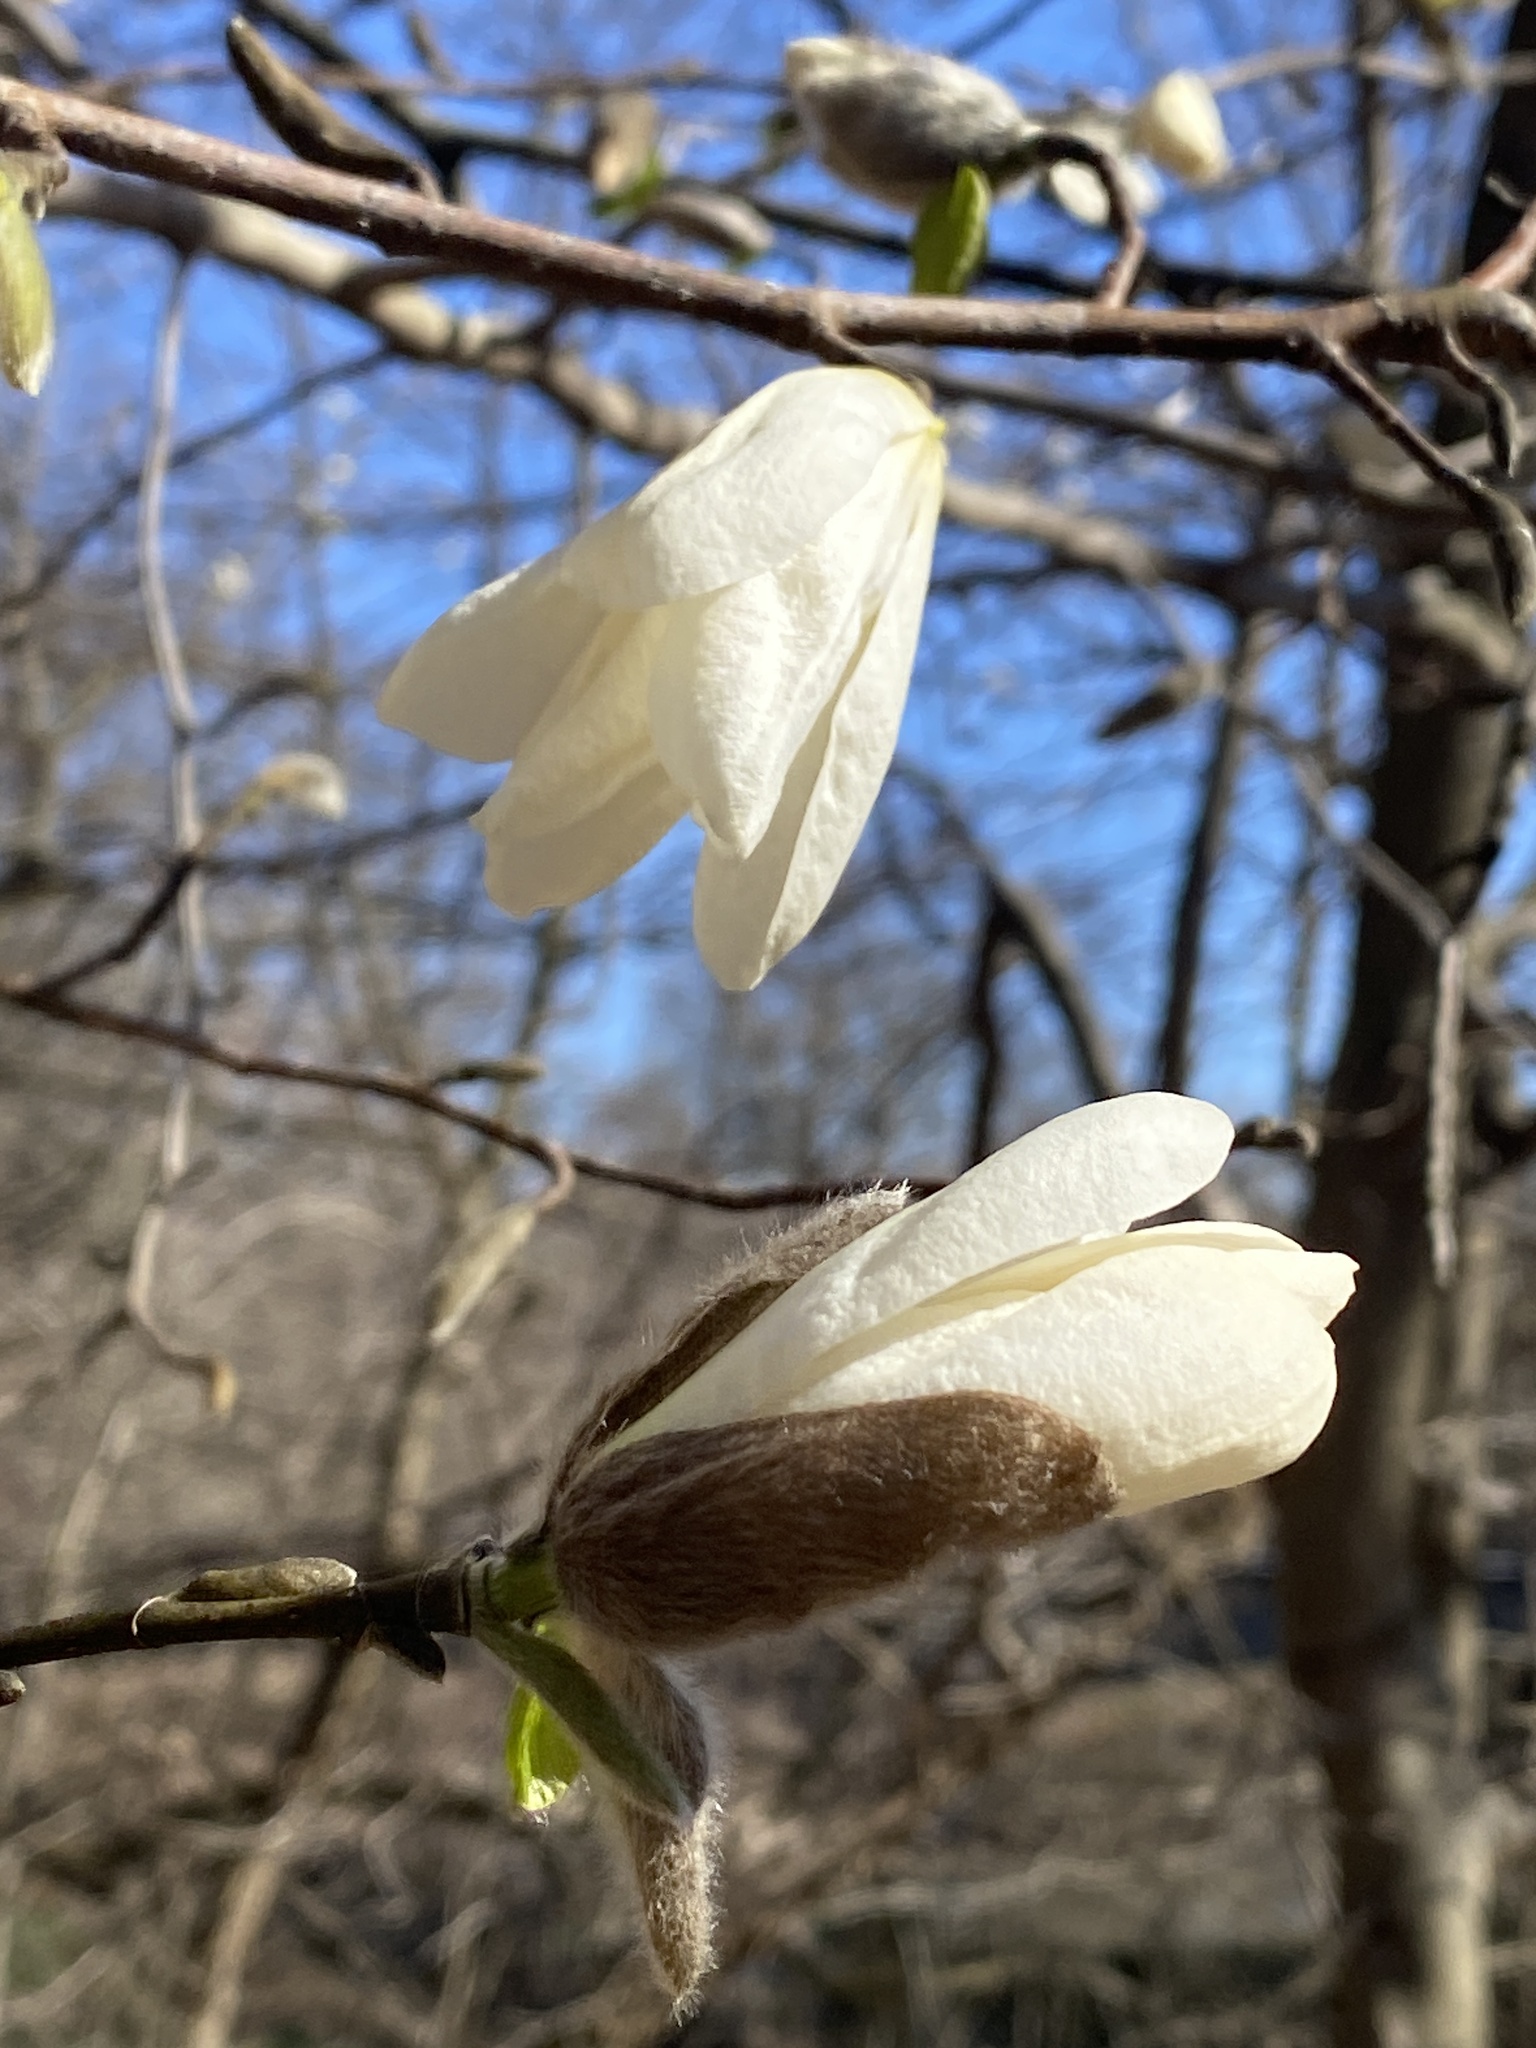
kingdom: Plantae
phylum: Tracheophyta
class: Magnoliopsida
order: Magnoliales
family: Magnoliaceae
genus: Magnolia
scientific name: Magnolia kobus
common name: Kobus magnolia
